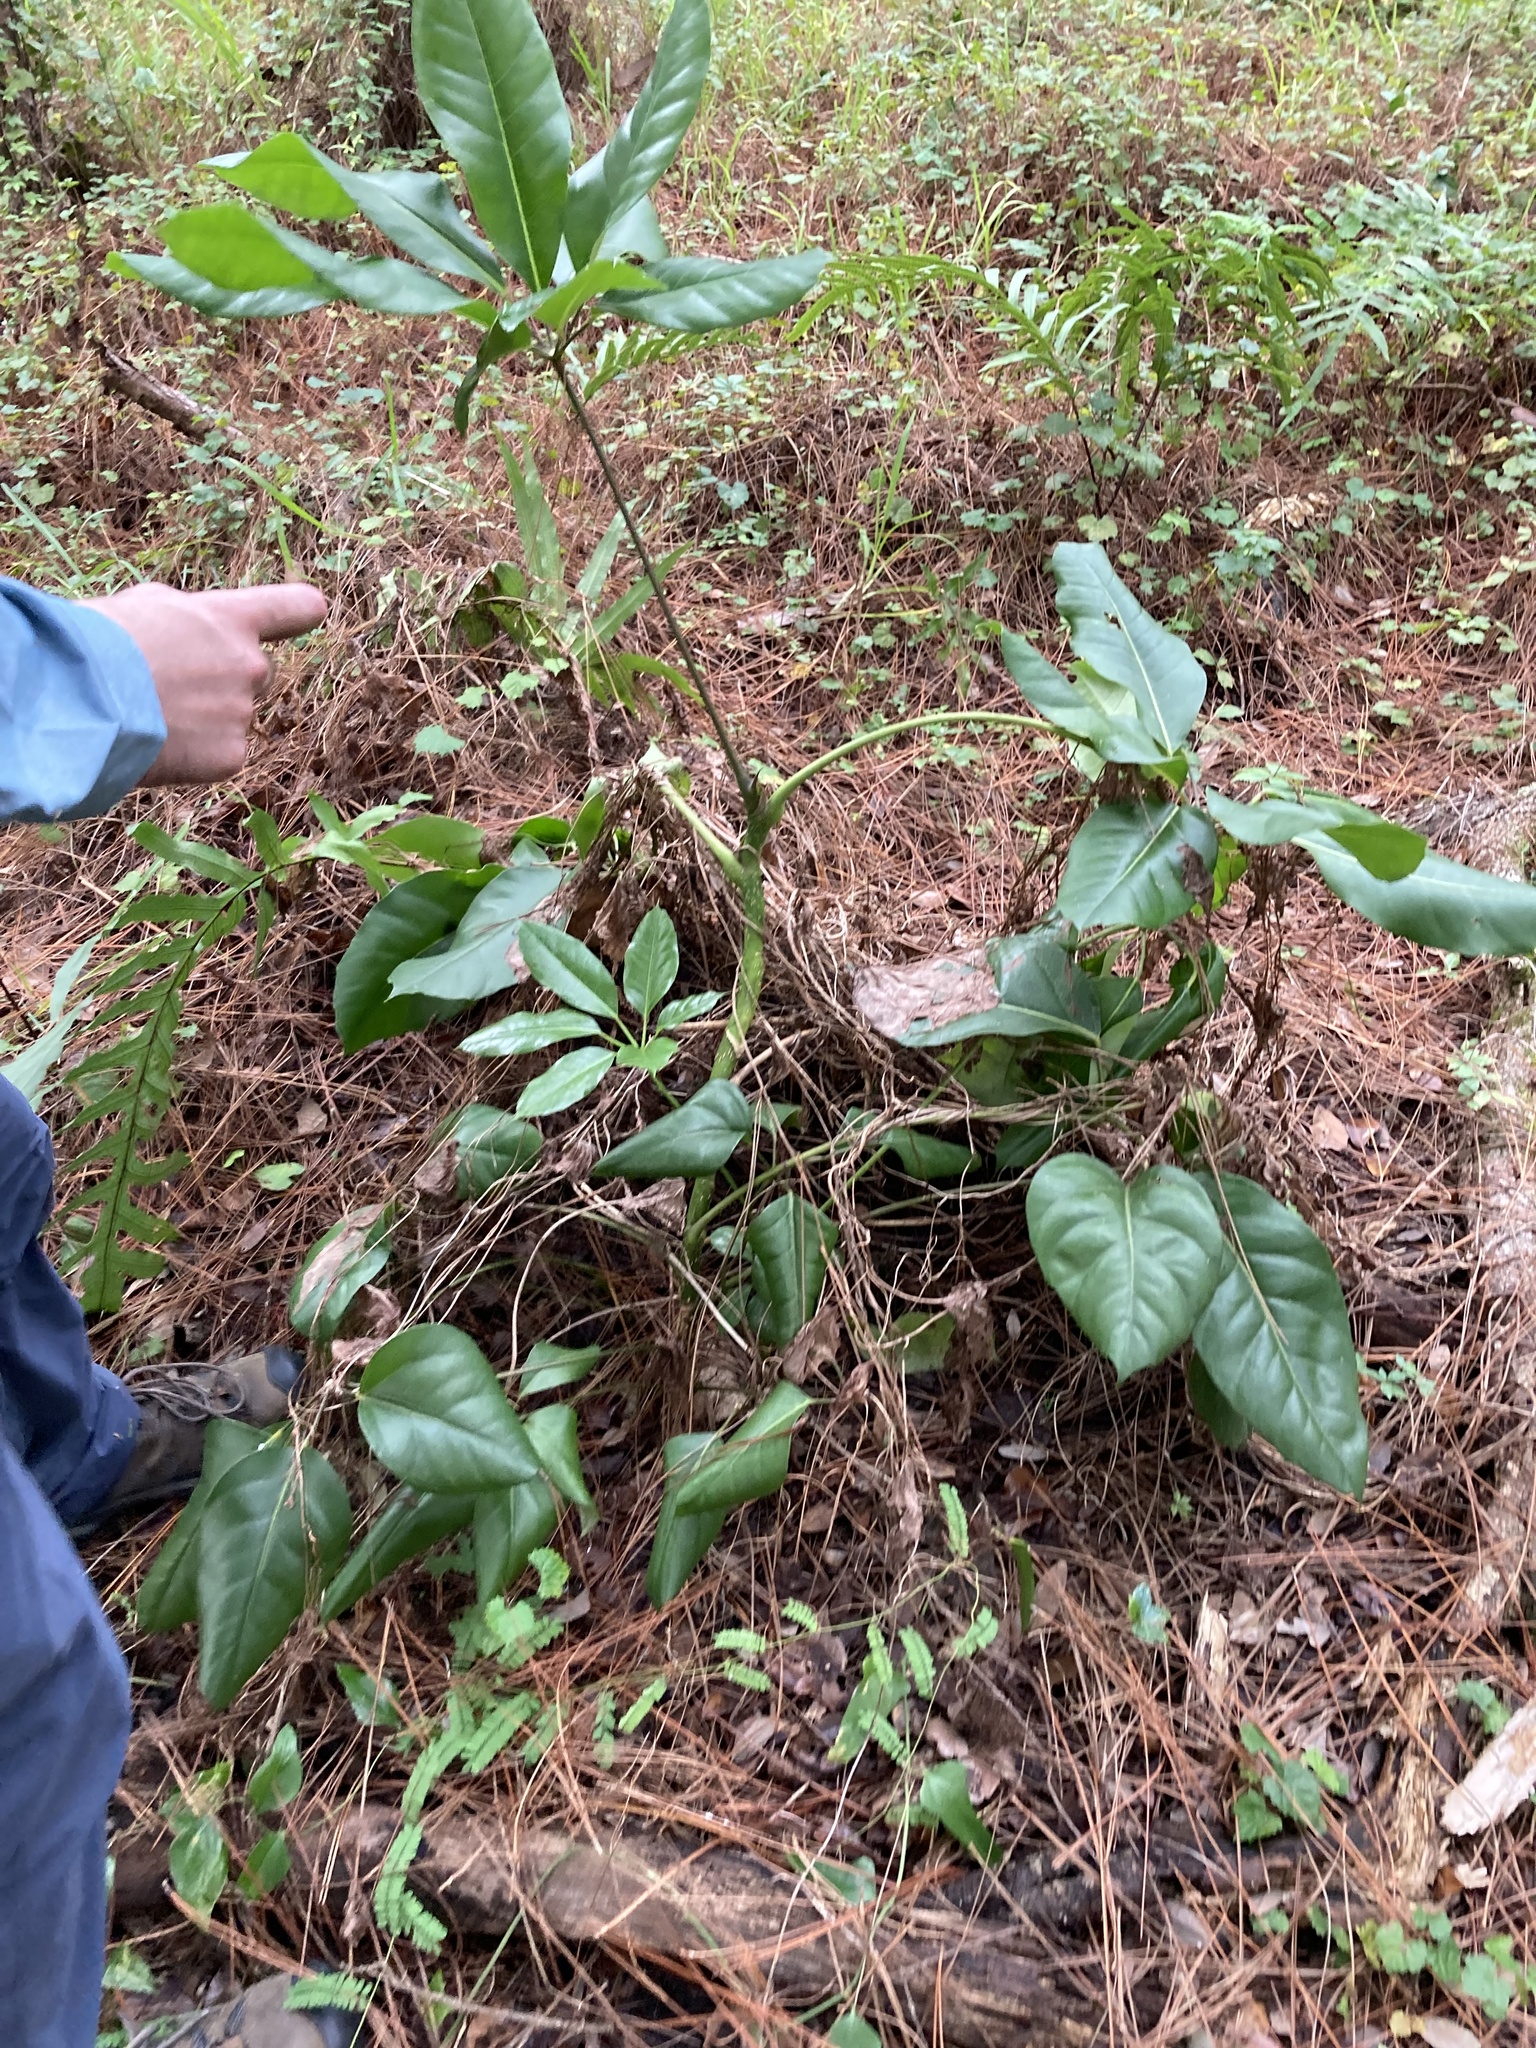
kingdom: Plantae
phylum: Tracheophyta
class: Magnoliopsida
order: Apiales
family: Araliaceae
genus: Heptapleurum
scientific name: Heptapleurum actinophyllum
